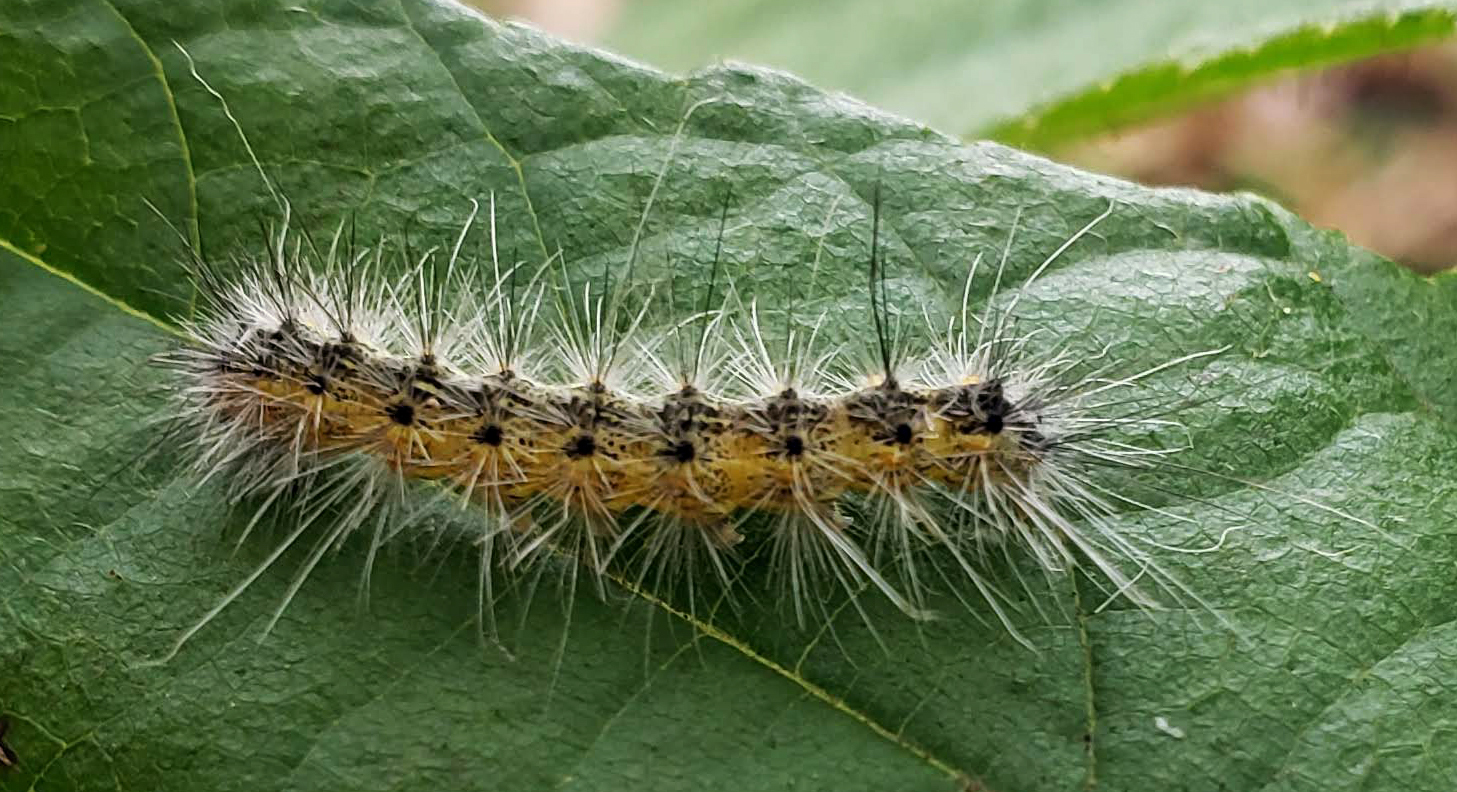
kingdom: Animalia
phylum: Arthropoda
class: Insecta
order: Lepidoptera
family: Erebidae
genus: Hyphantria
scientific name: Hyphantria cunea
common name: American white moth
